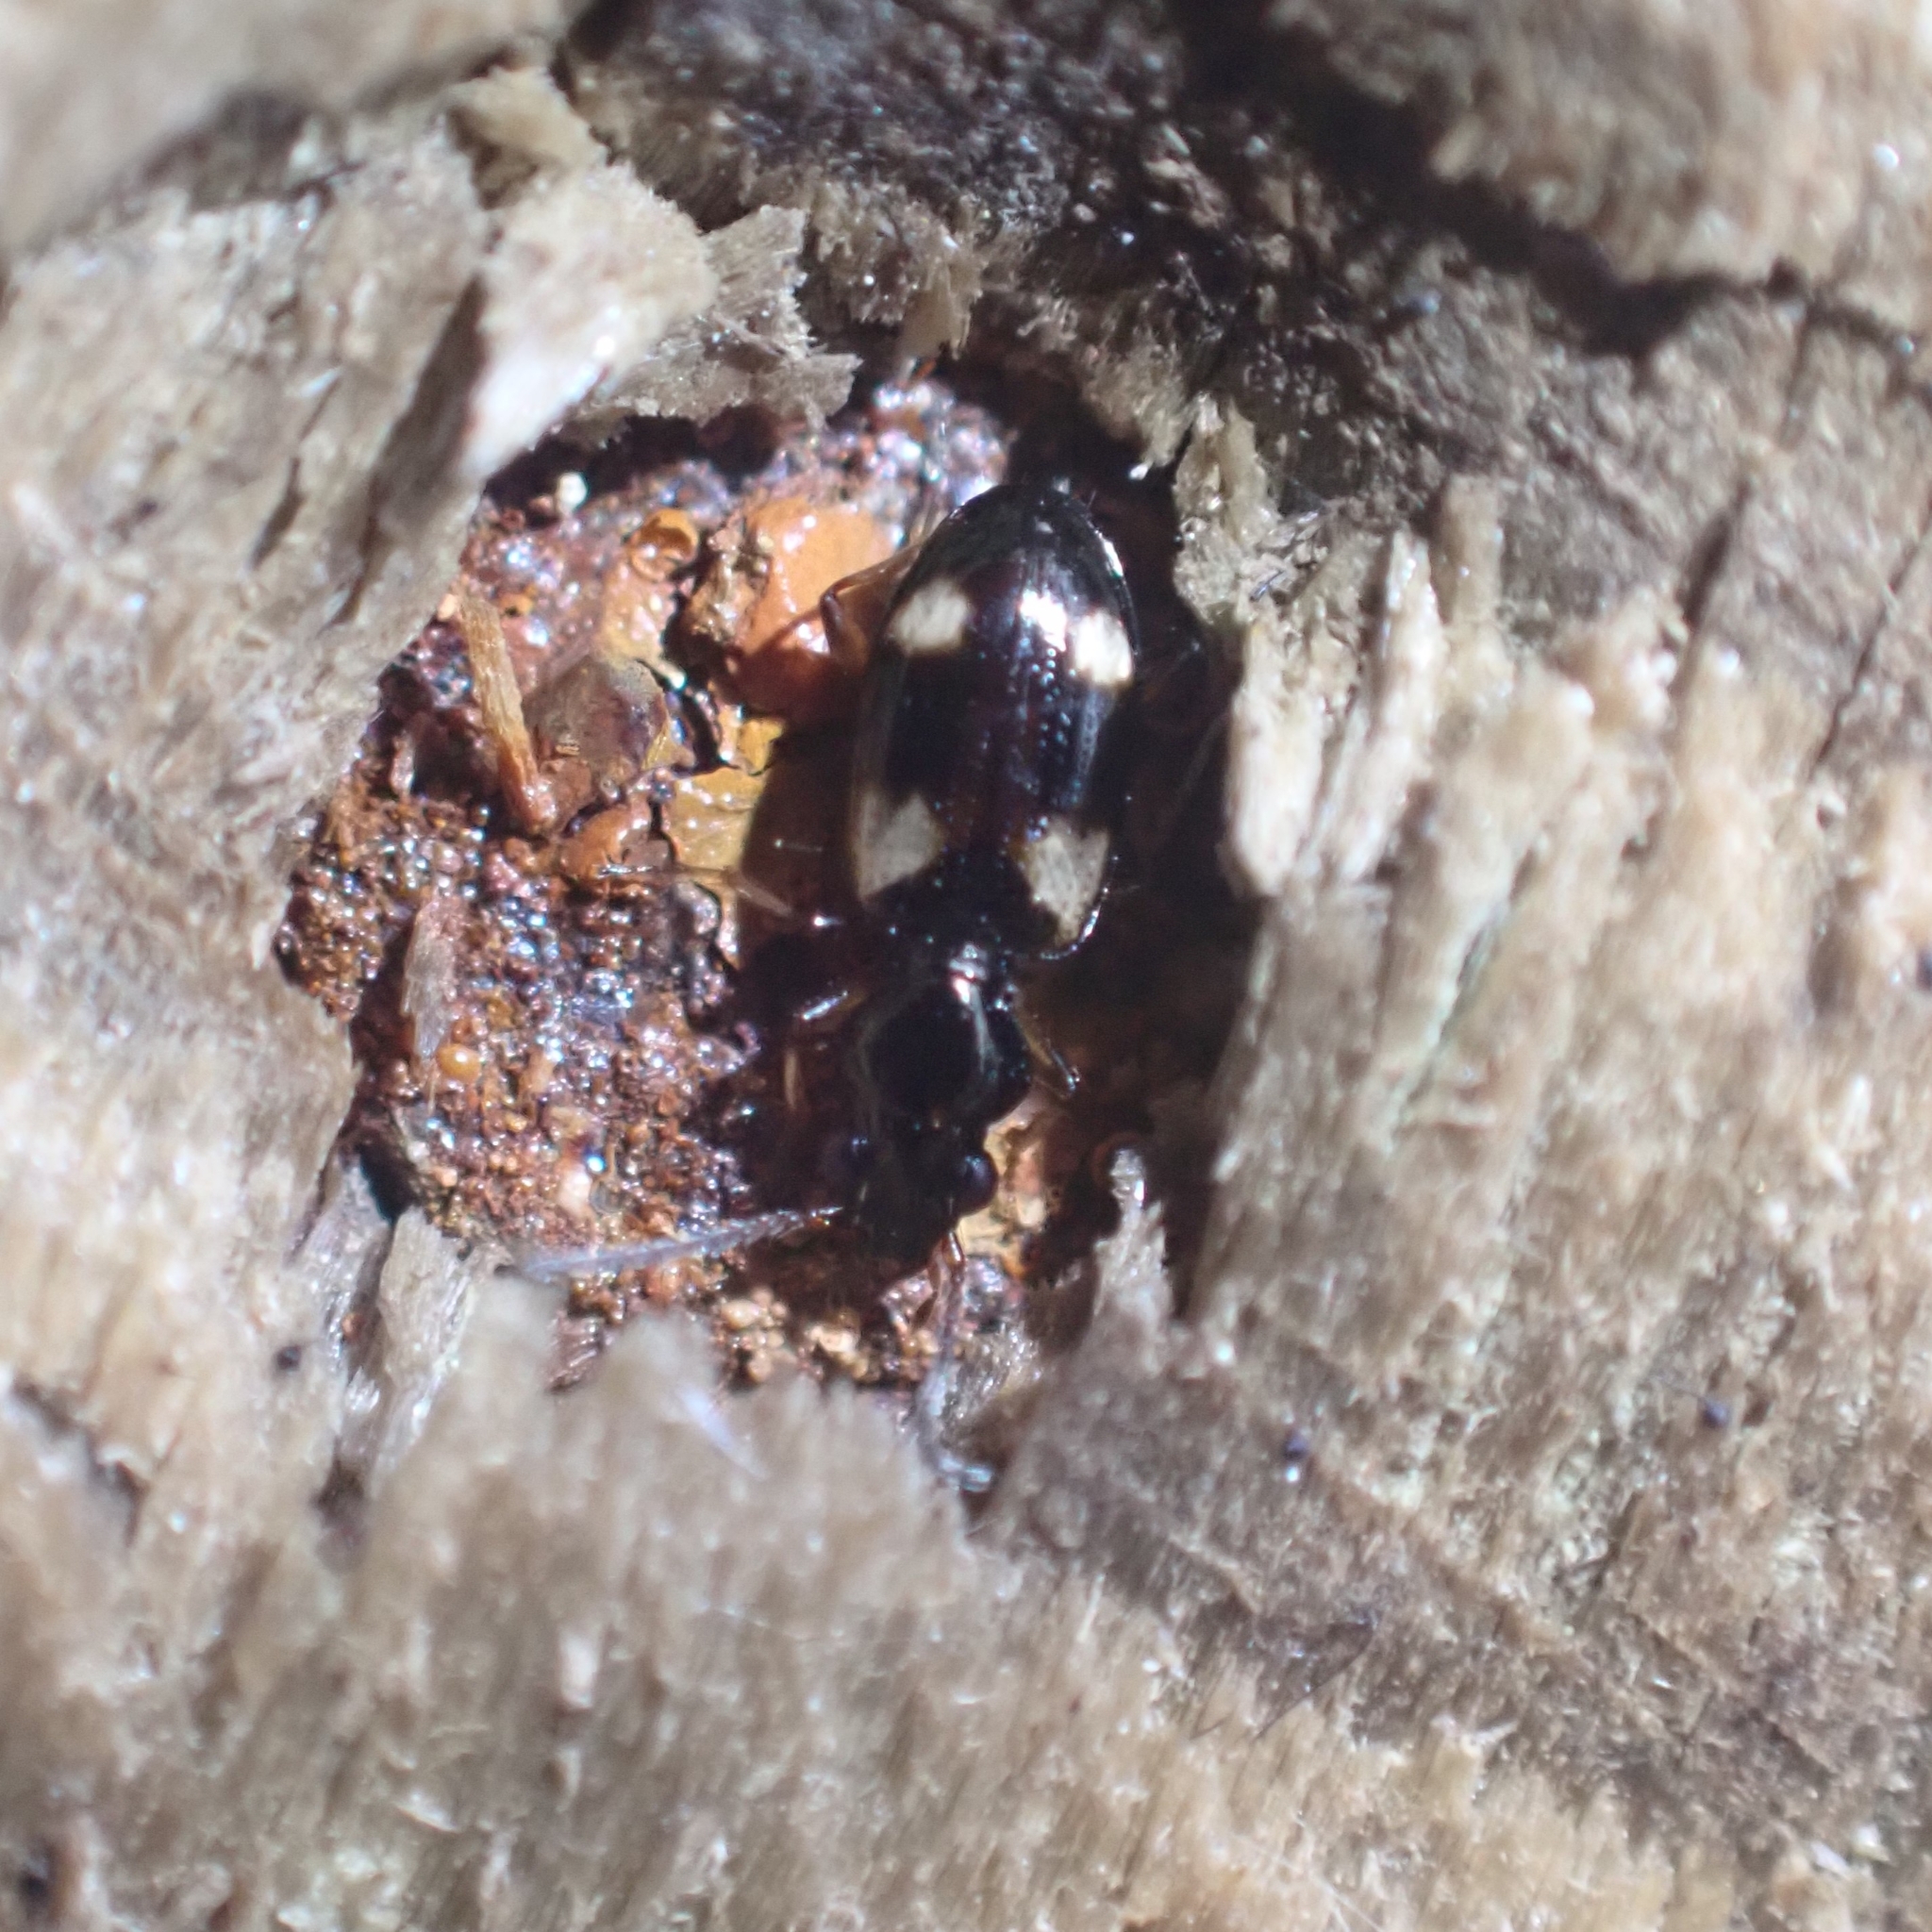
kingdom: Animalia
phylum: Arthropoda
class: Insecta
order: Coleoptera
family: Carabidae
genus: Bembidion
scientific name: Bembidion quadrimaculatum
